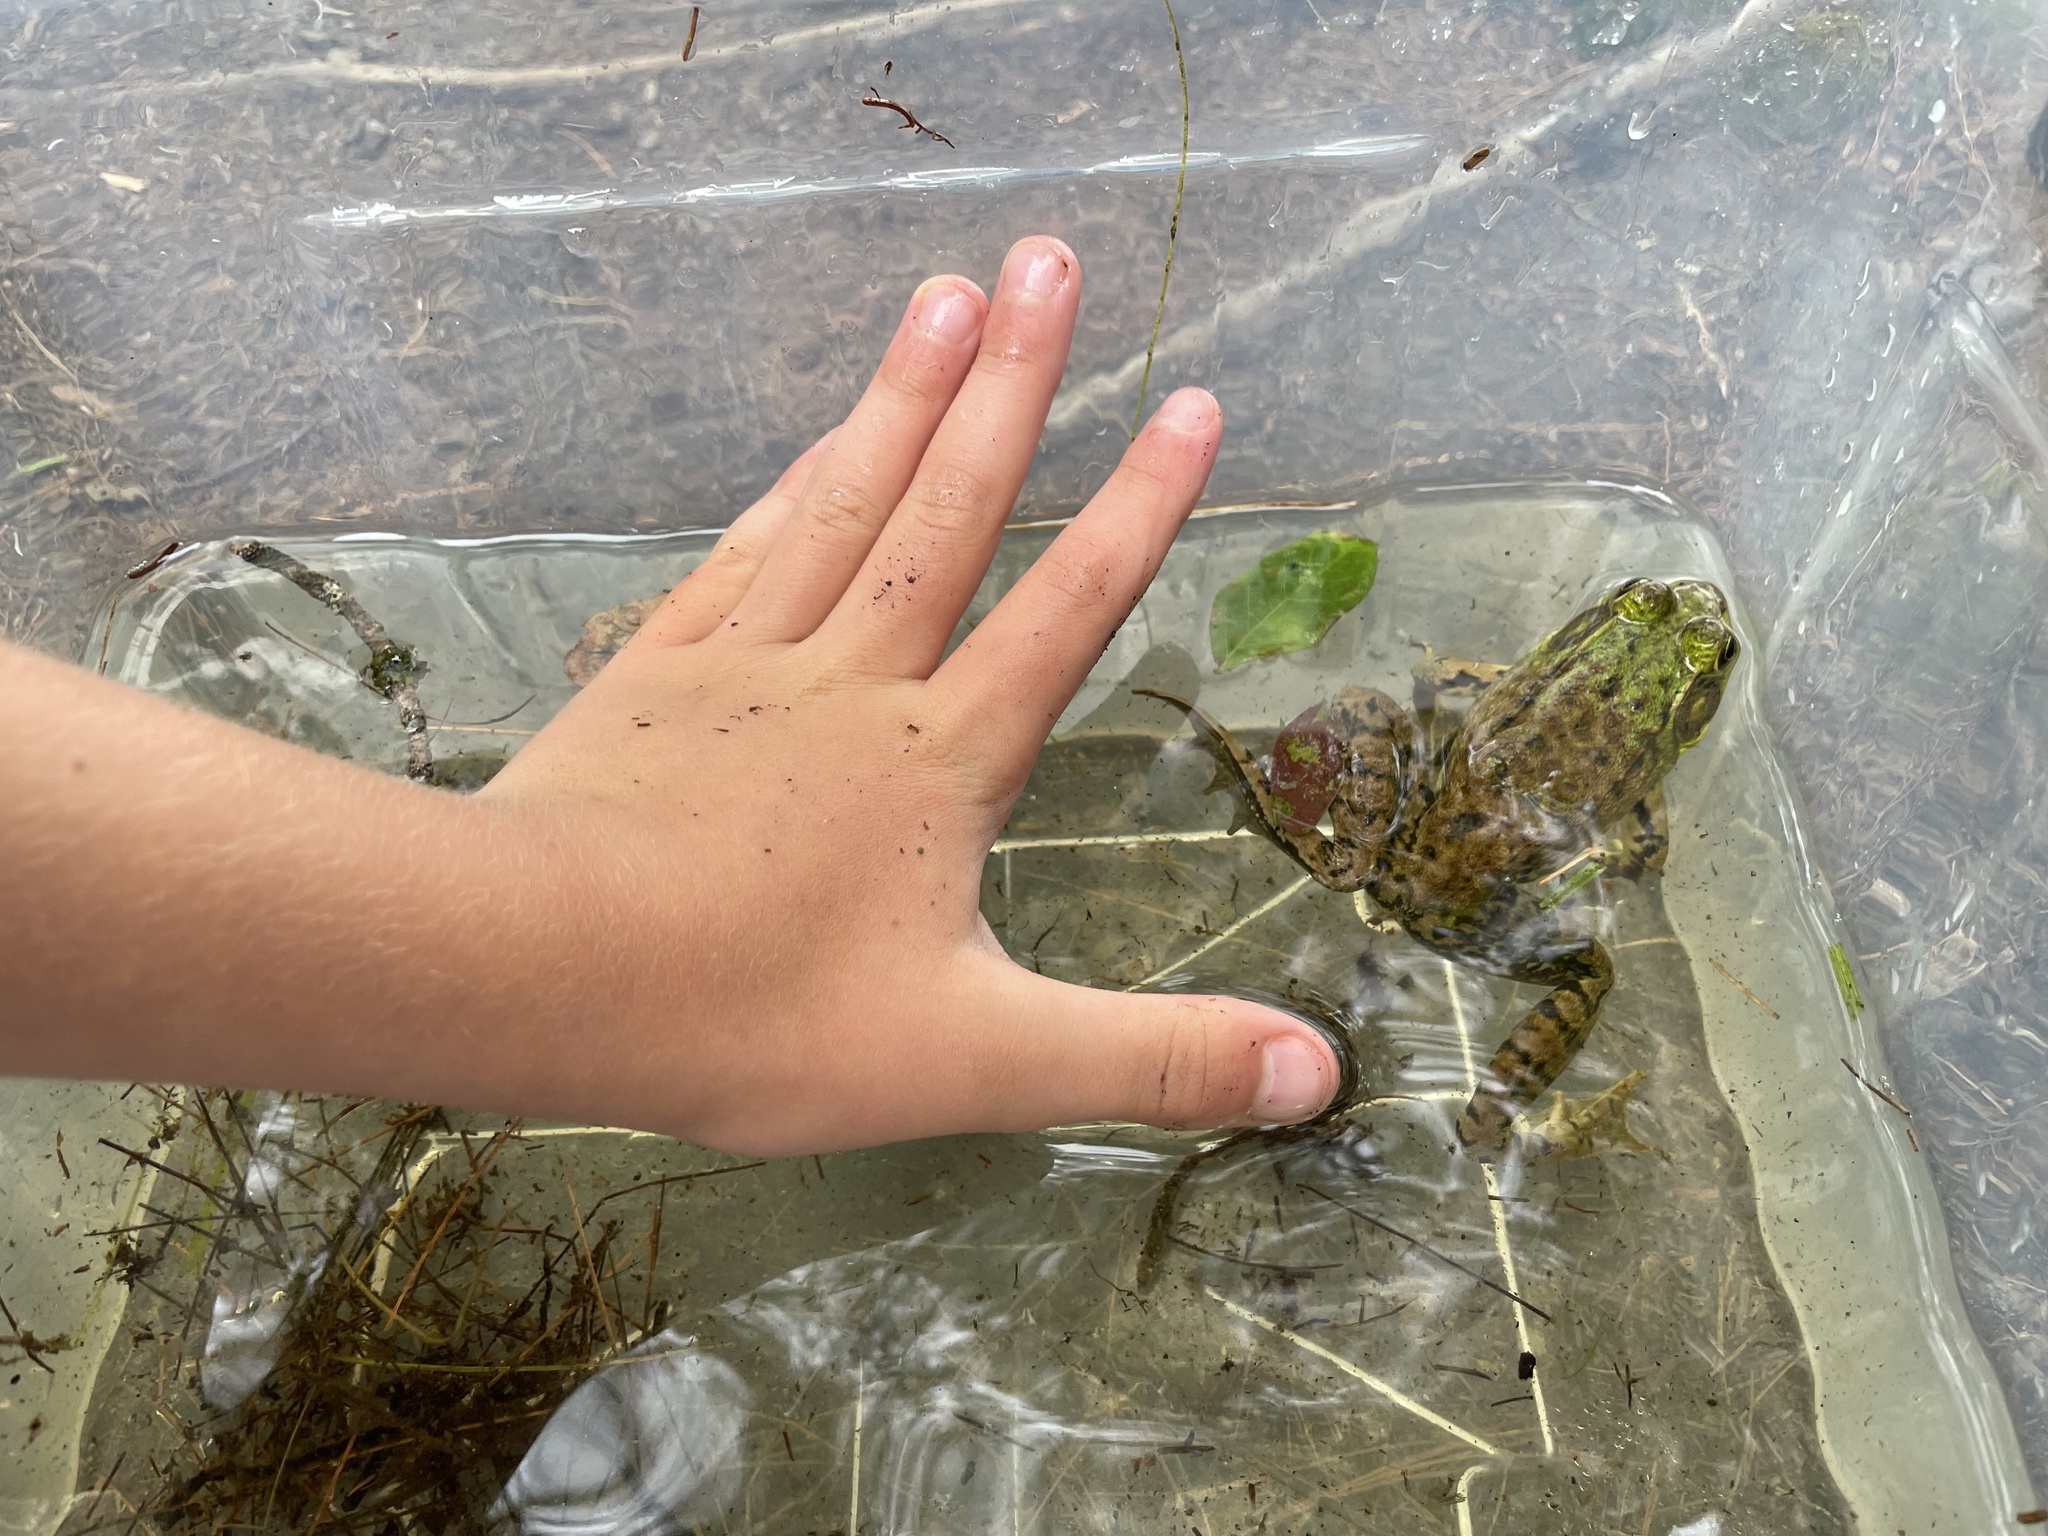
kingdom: Animalia
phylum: Chordata
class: Amphibia
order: Anura
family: Ranidae
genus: Lithobates
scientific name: Lithobates clamitans
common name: Green frog
